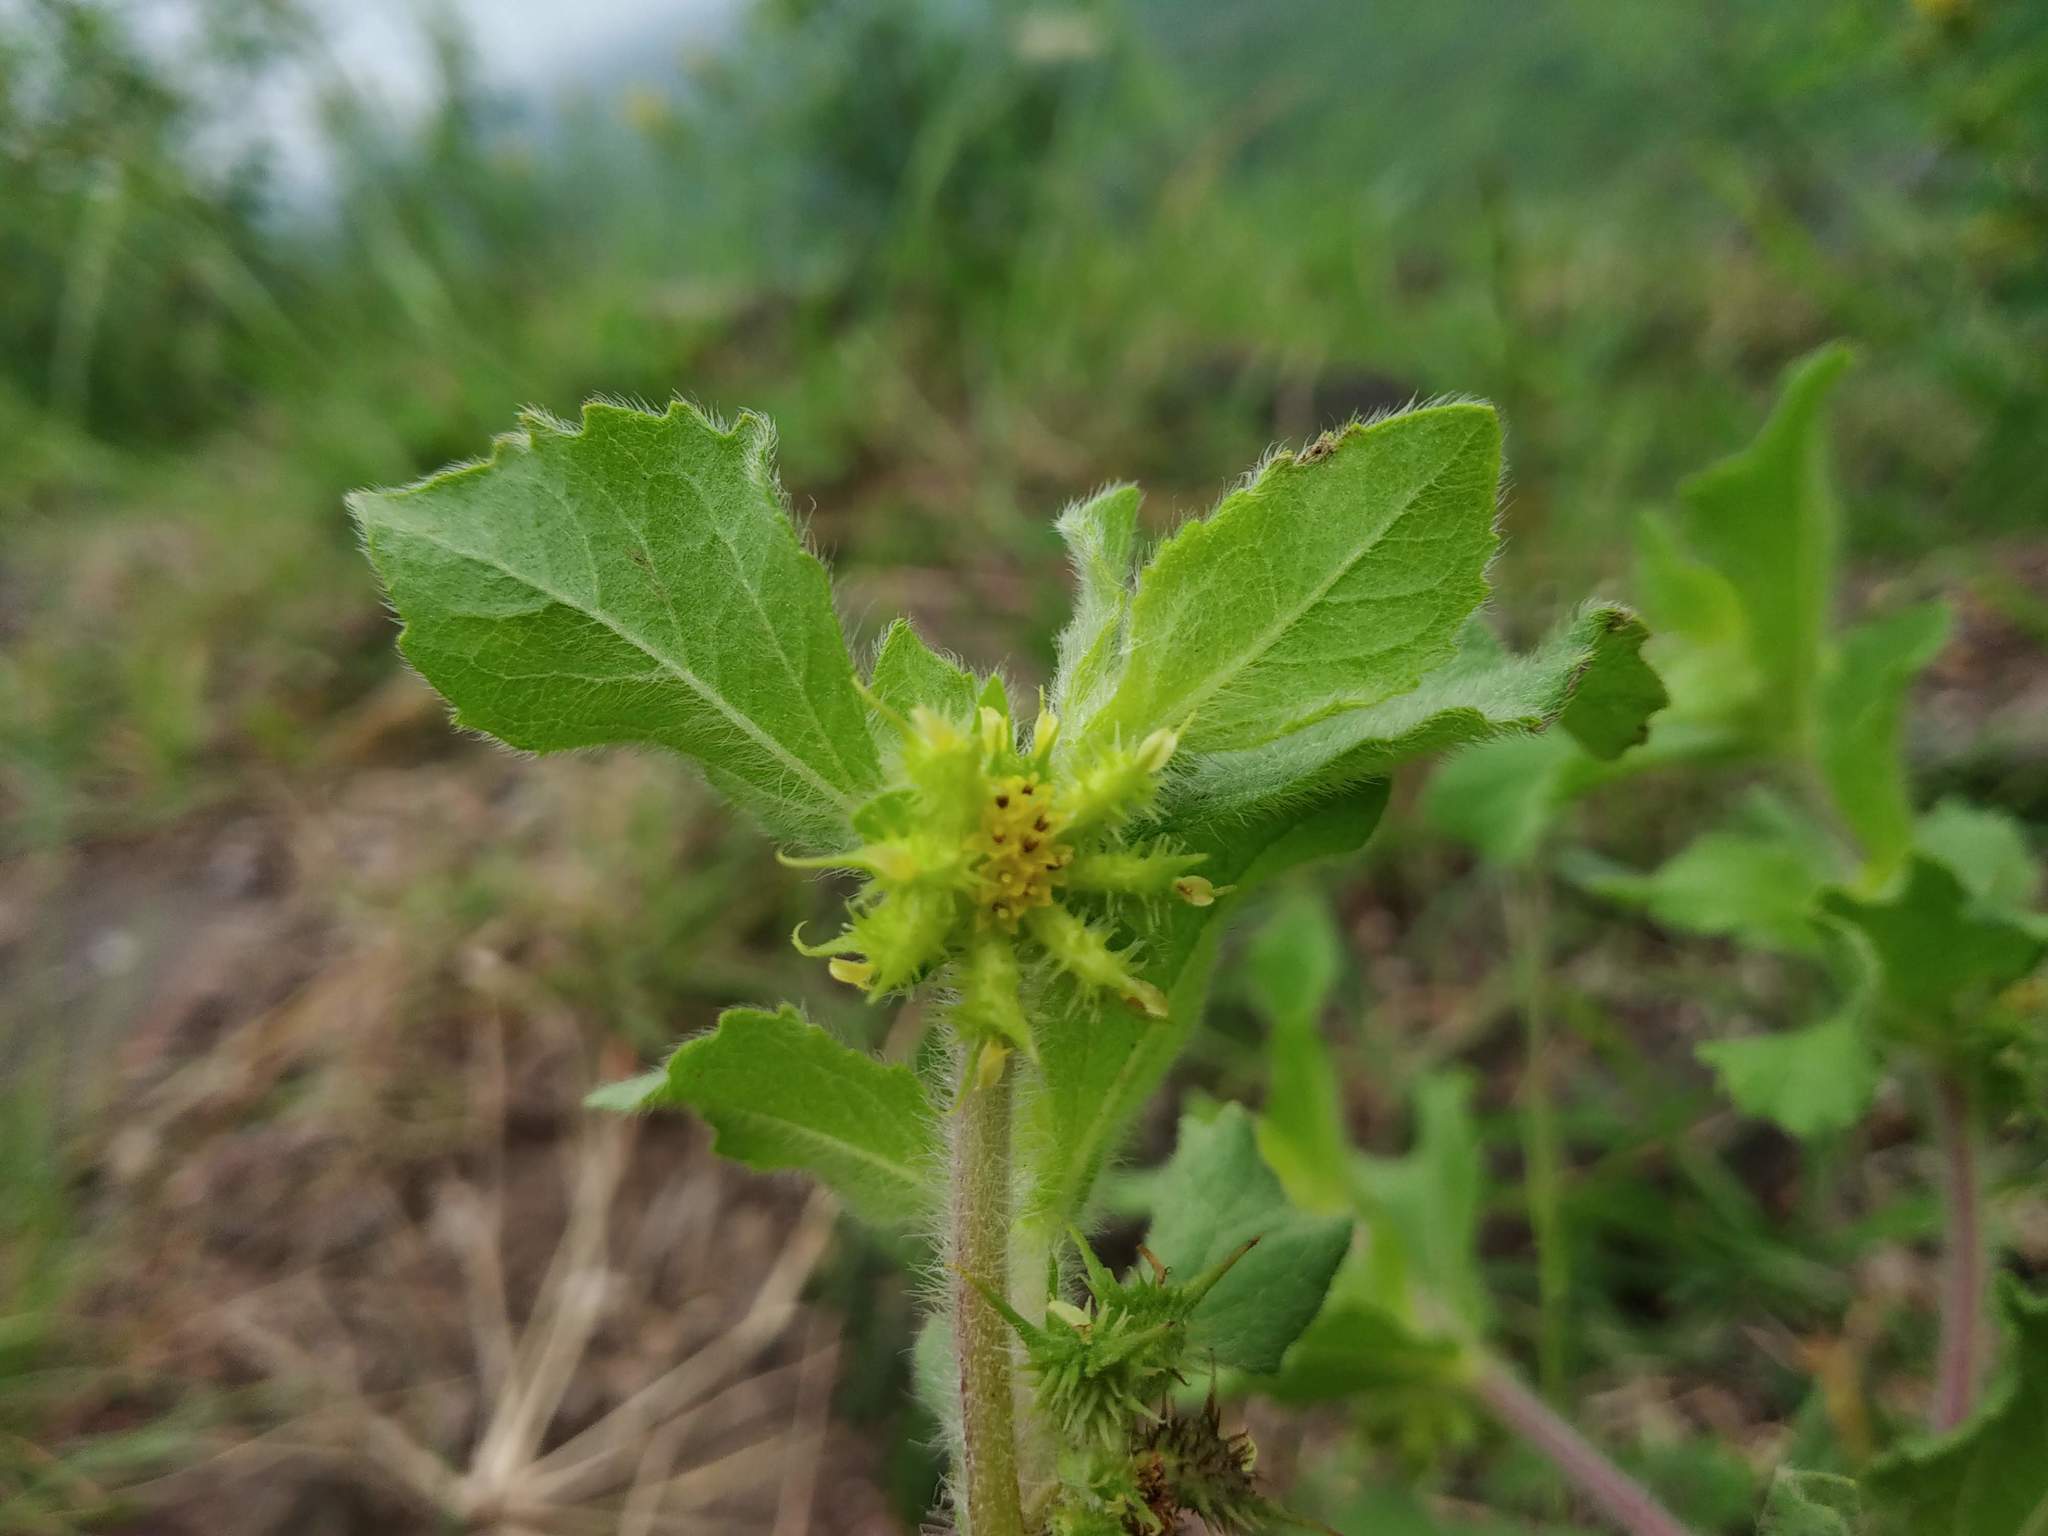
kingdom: Plantae
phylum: Tracheophyta
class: Magnoliopsida
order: Asterales
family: Asteraceae
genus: Acanthospermum
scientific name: Acanthospermum hispidum
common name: Hispid starbur
